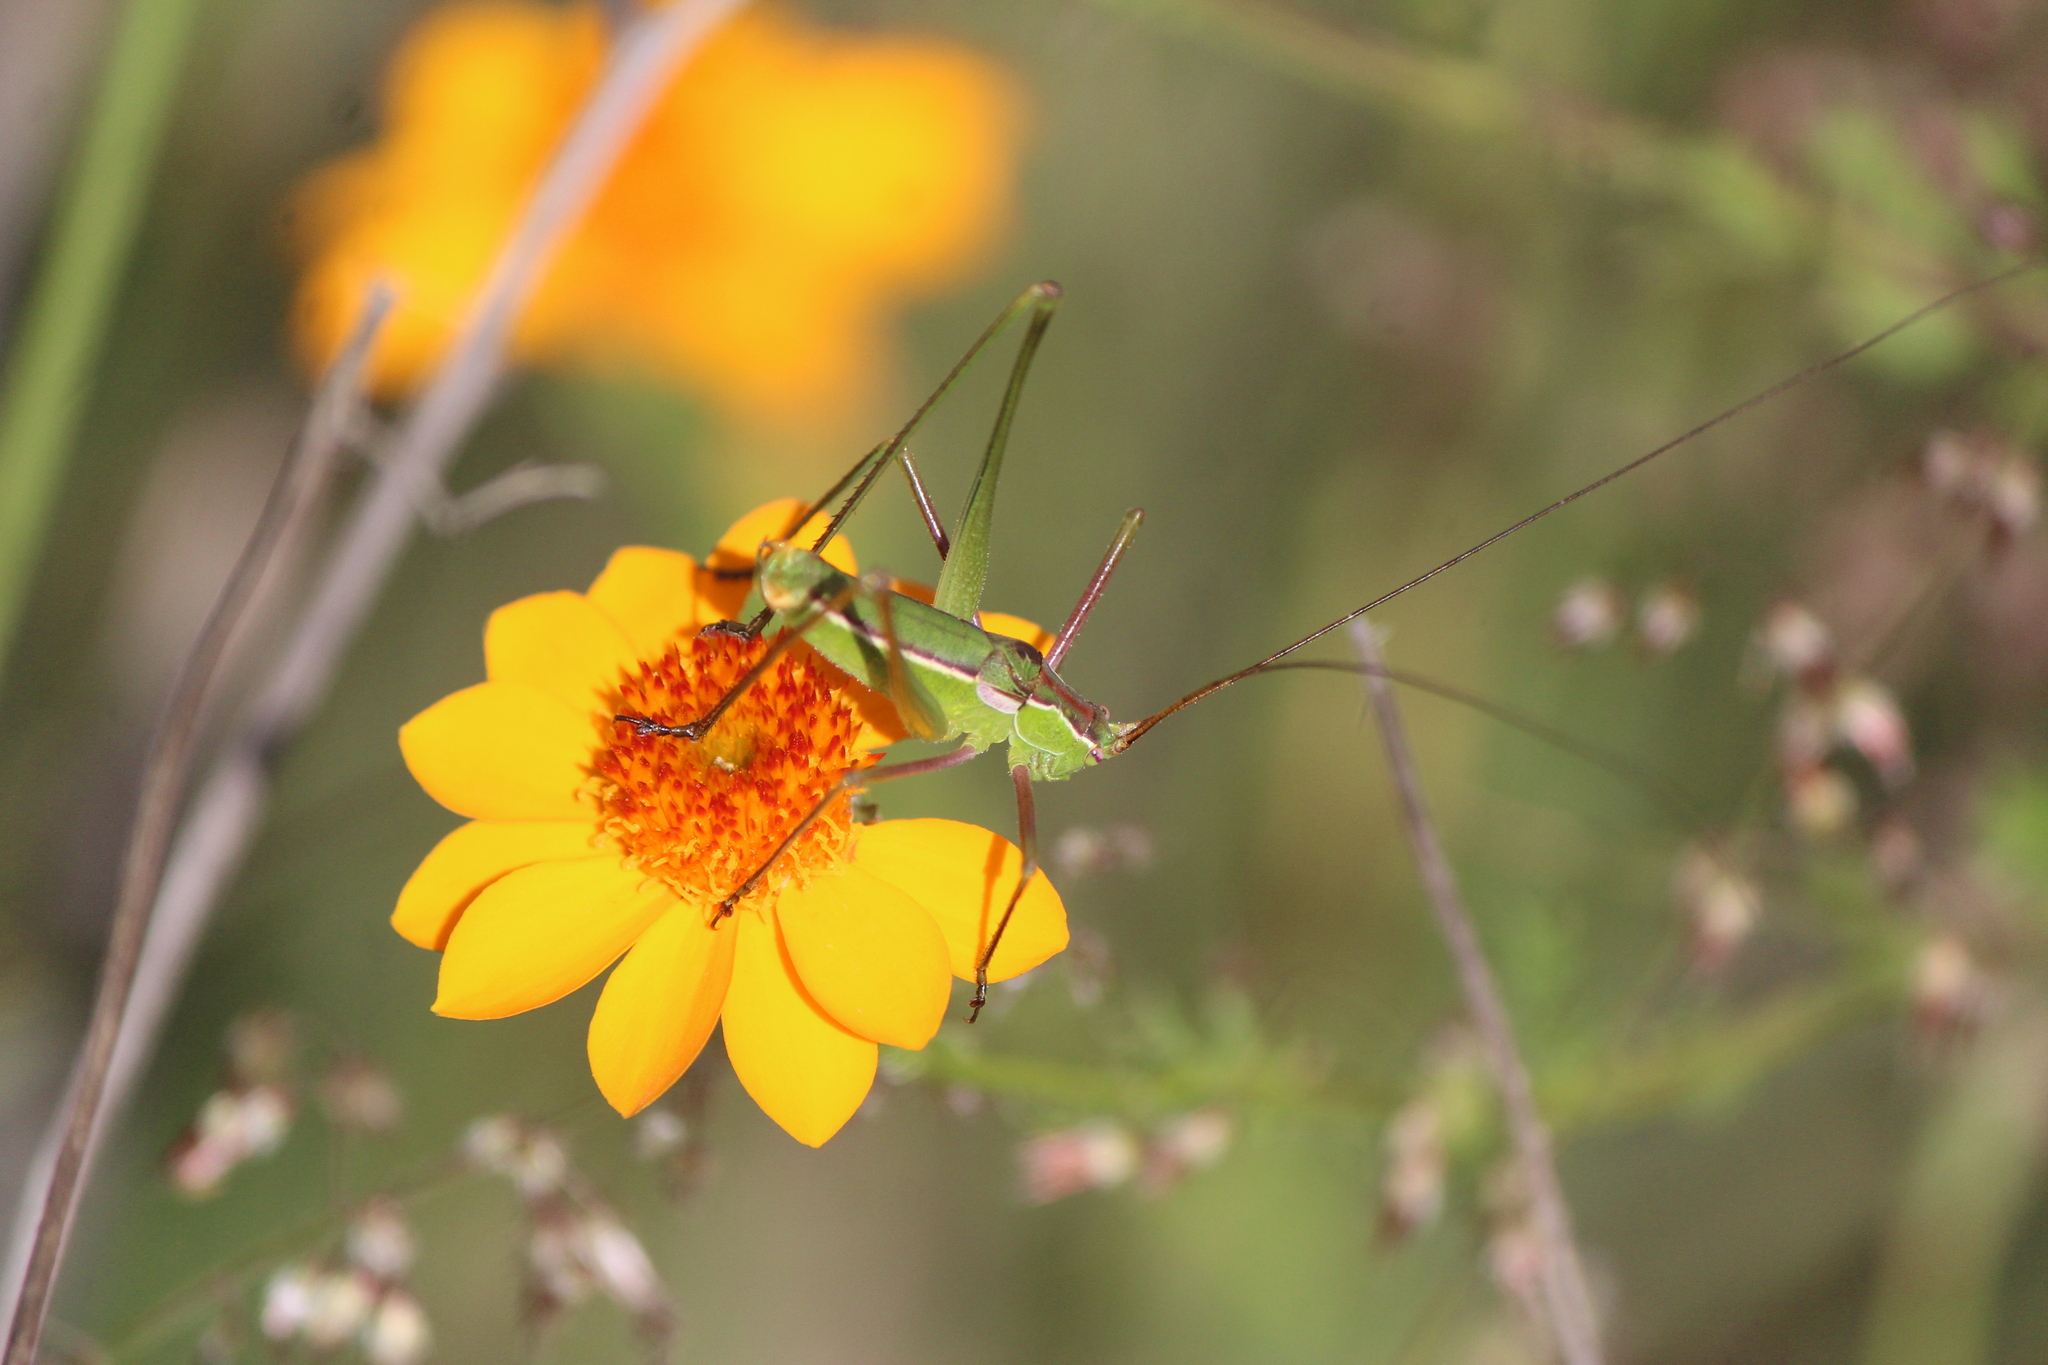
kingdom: Animalia
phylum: Arthropoda
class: Insecta
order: Orthoptera
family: Tettigoniidae
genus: Mactruchus
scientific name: Mactruchus serrifer
